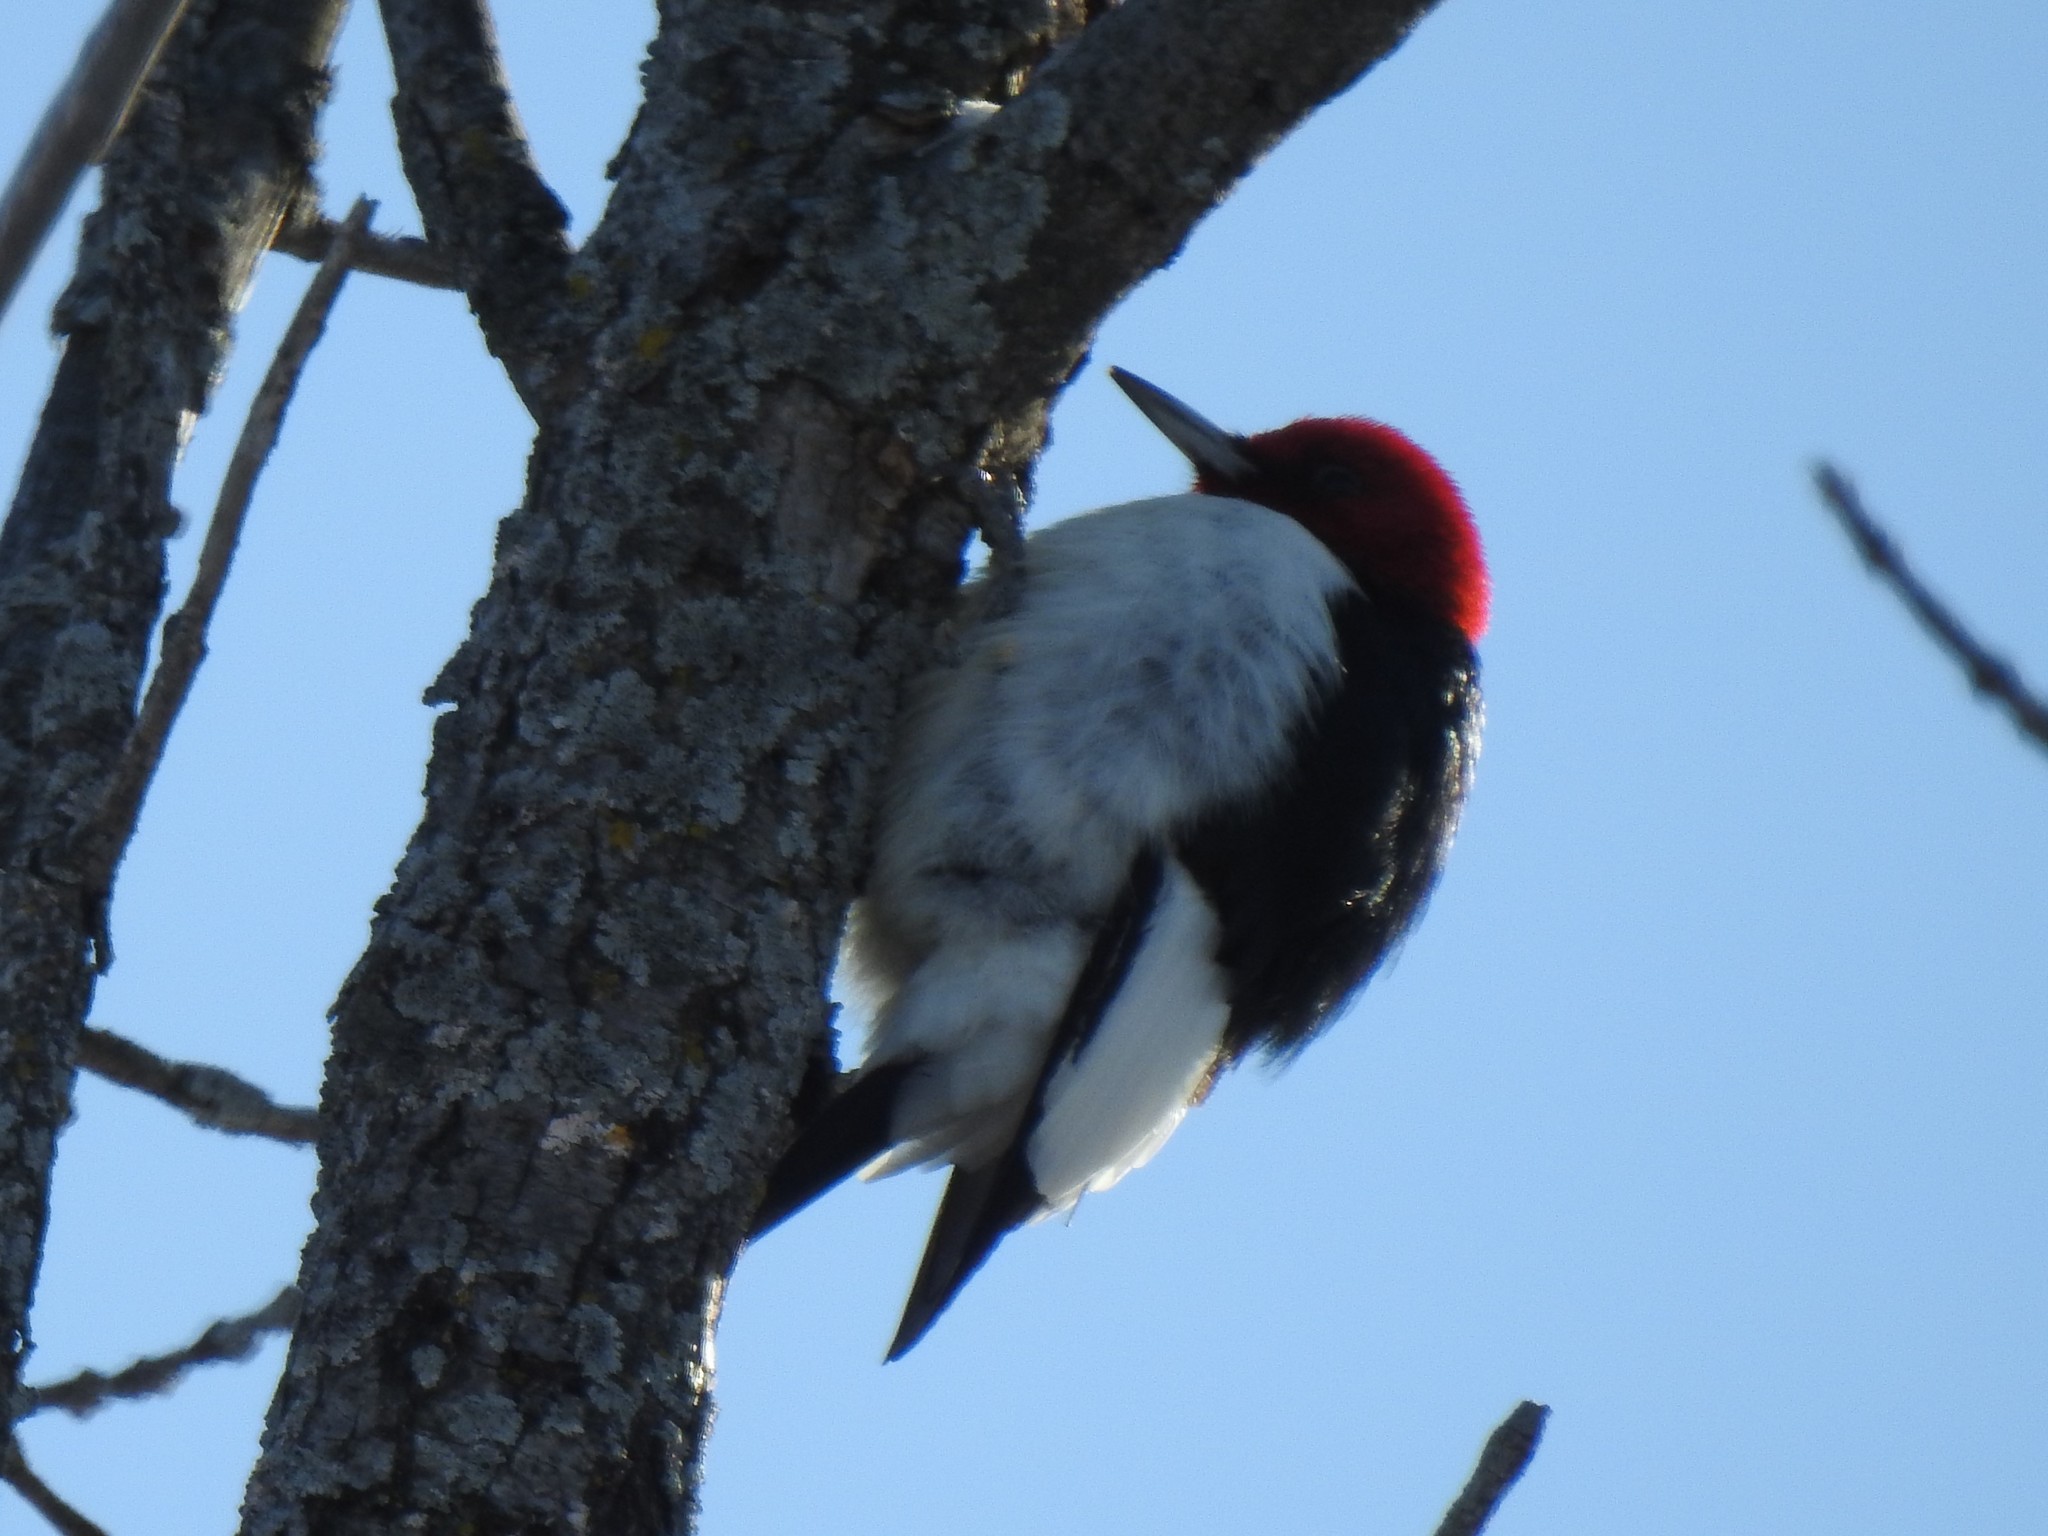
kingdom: Animalia
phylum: Chordata
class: Aves
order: Piciformes
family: Picidae
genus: Melanerpes
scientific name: Melanerpes erythrocephalus
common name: Red-headed woodpecker
